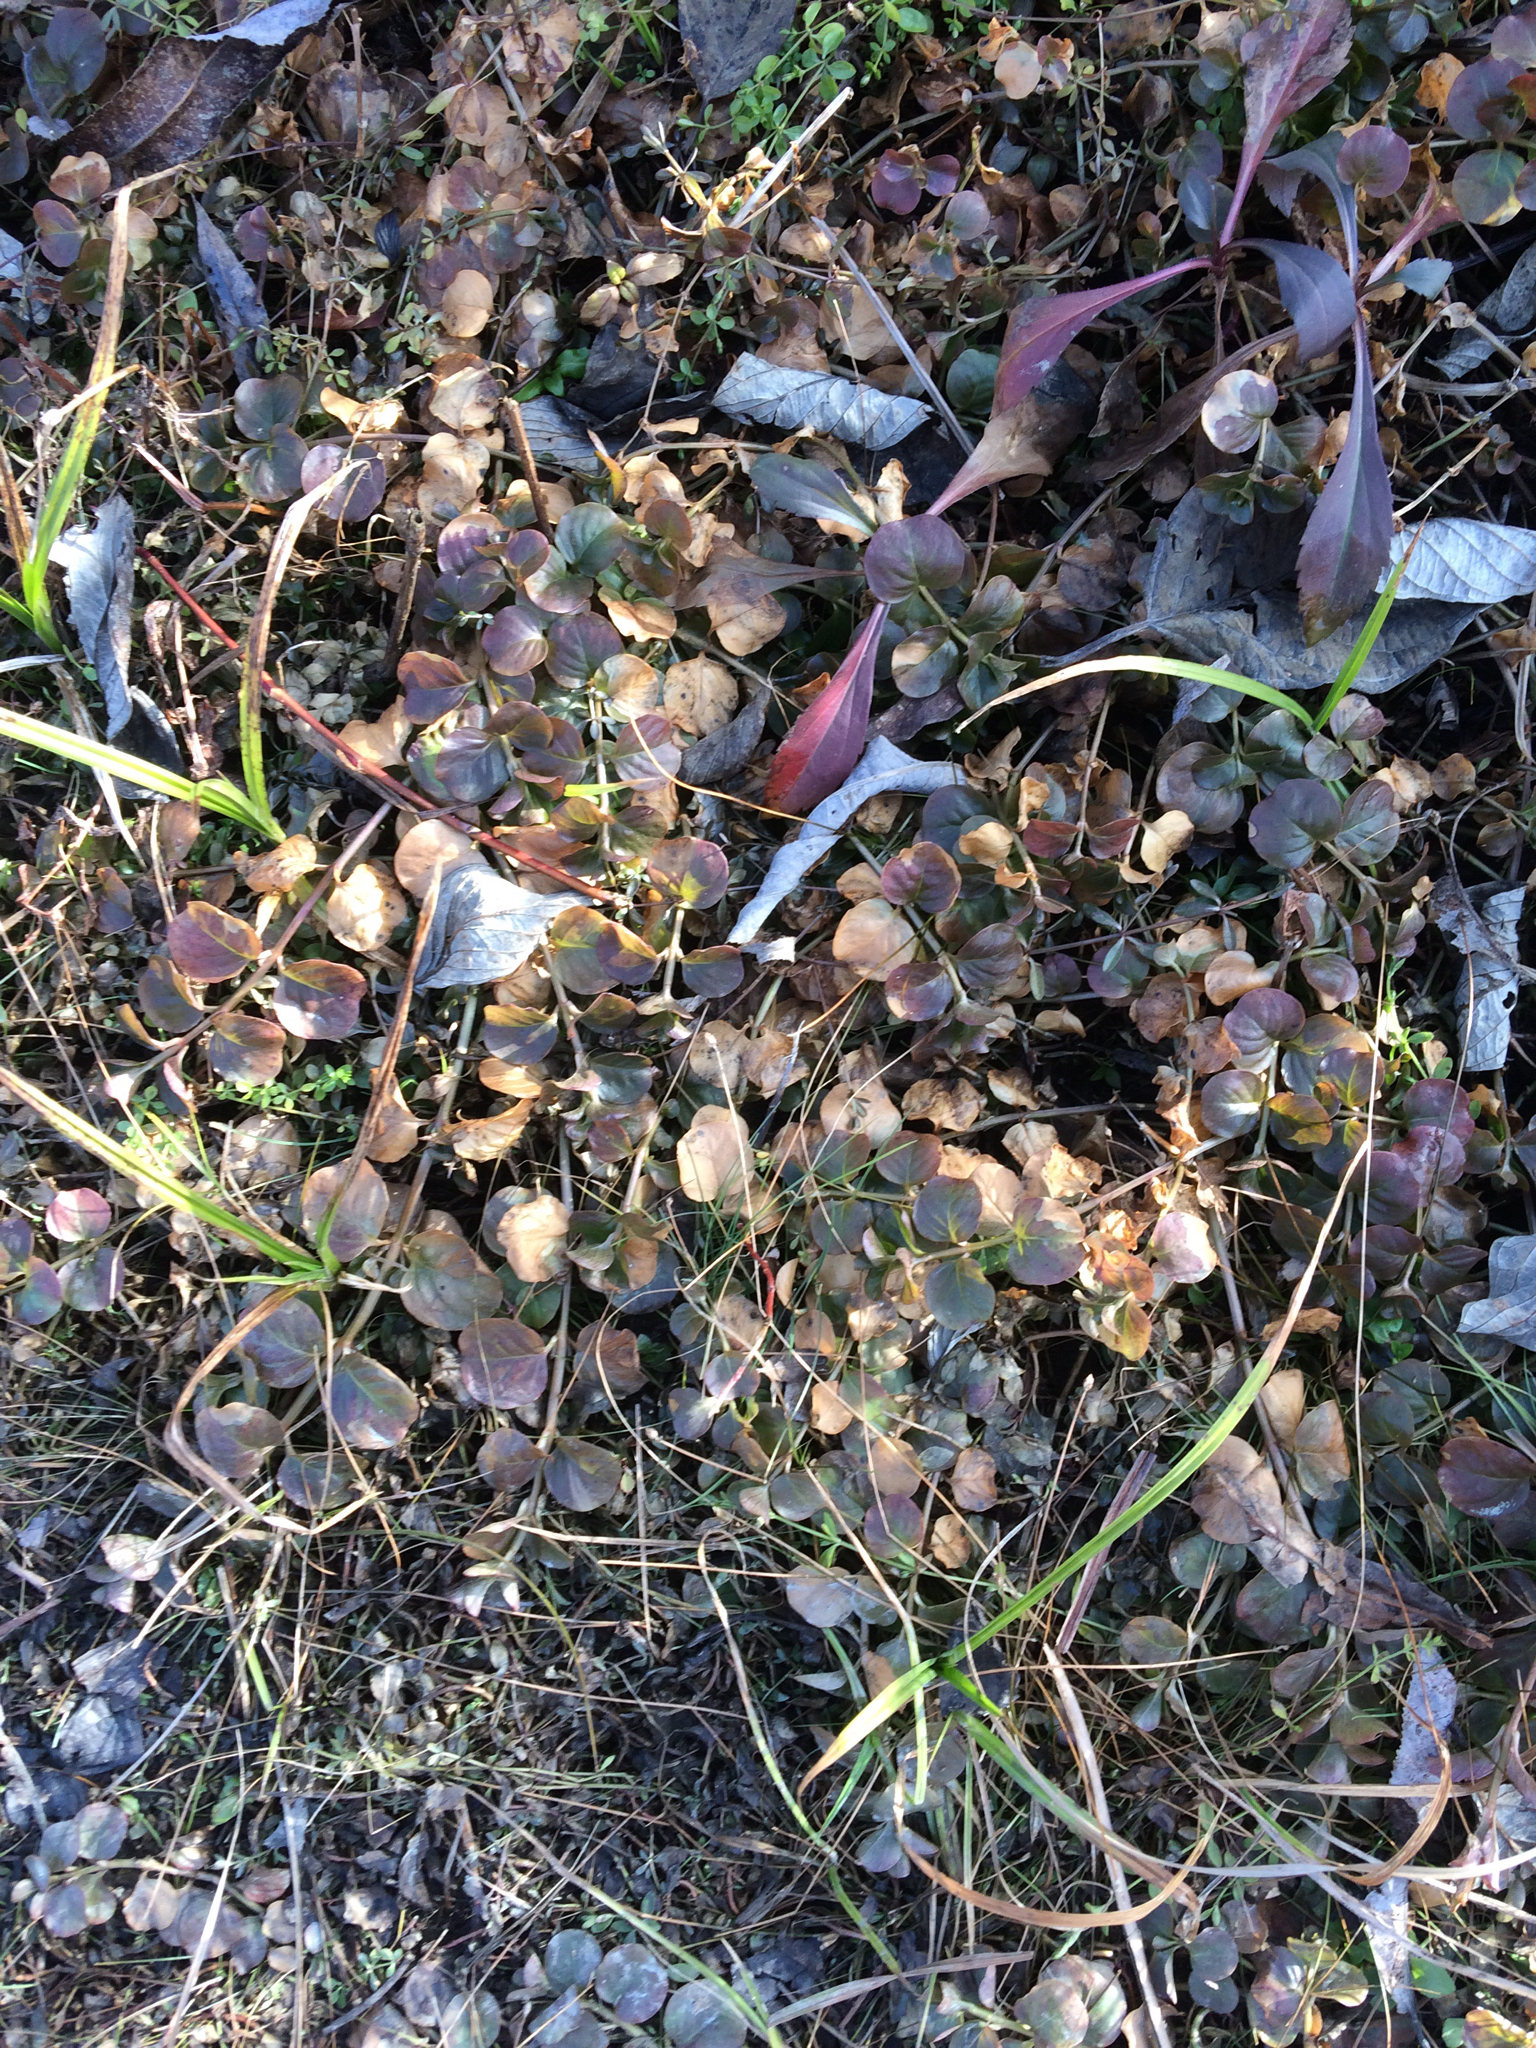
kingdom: Plantae
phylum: Tracheophyta
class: Magnoliopsida
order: Ericales
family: Primulaceae
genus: Lysimachia
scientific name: Lysimachia nummularia
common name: Moneywort
